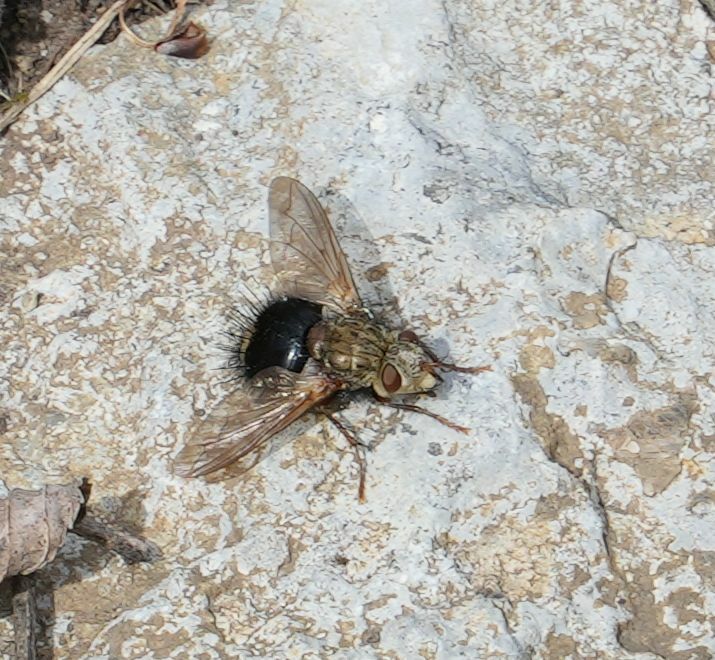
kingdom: Animalia
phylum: Arthropoda
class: Insecta
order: Diptera
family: Tachinidae
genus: Epalpus
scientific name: Epalpus signifer
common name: Early tachinid fly
